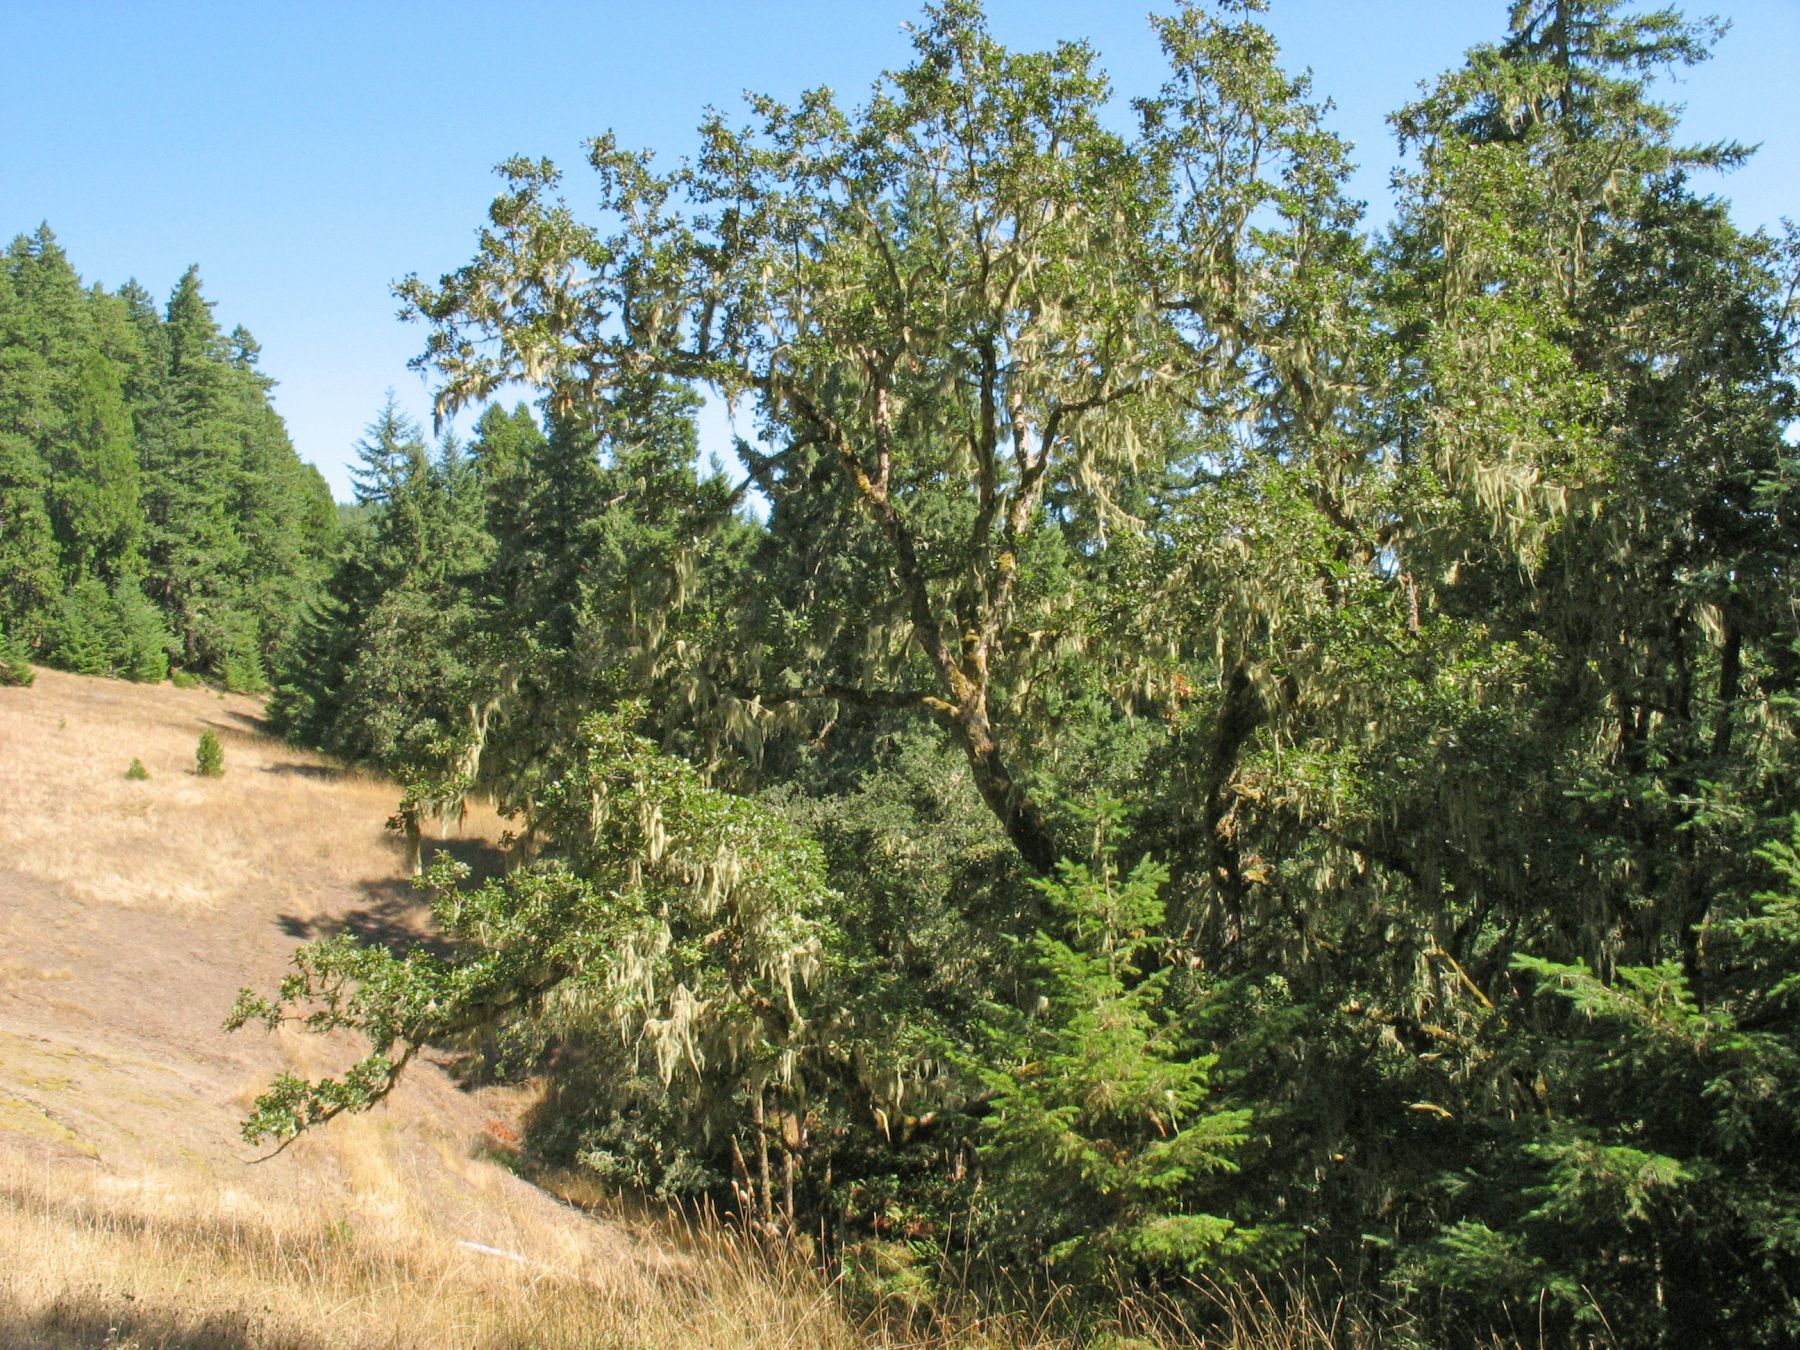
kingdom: Plantae
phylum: Tracheophyta
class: Magnoliopsida
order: Fagales
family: Fagaceae
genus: Quercus
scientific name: Quercus garryana
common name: Garry oak
